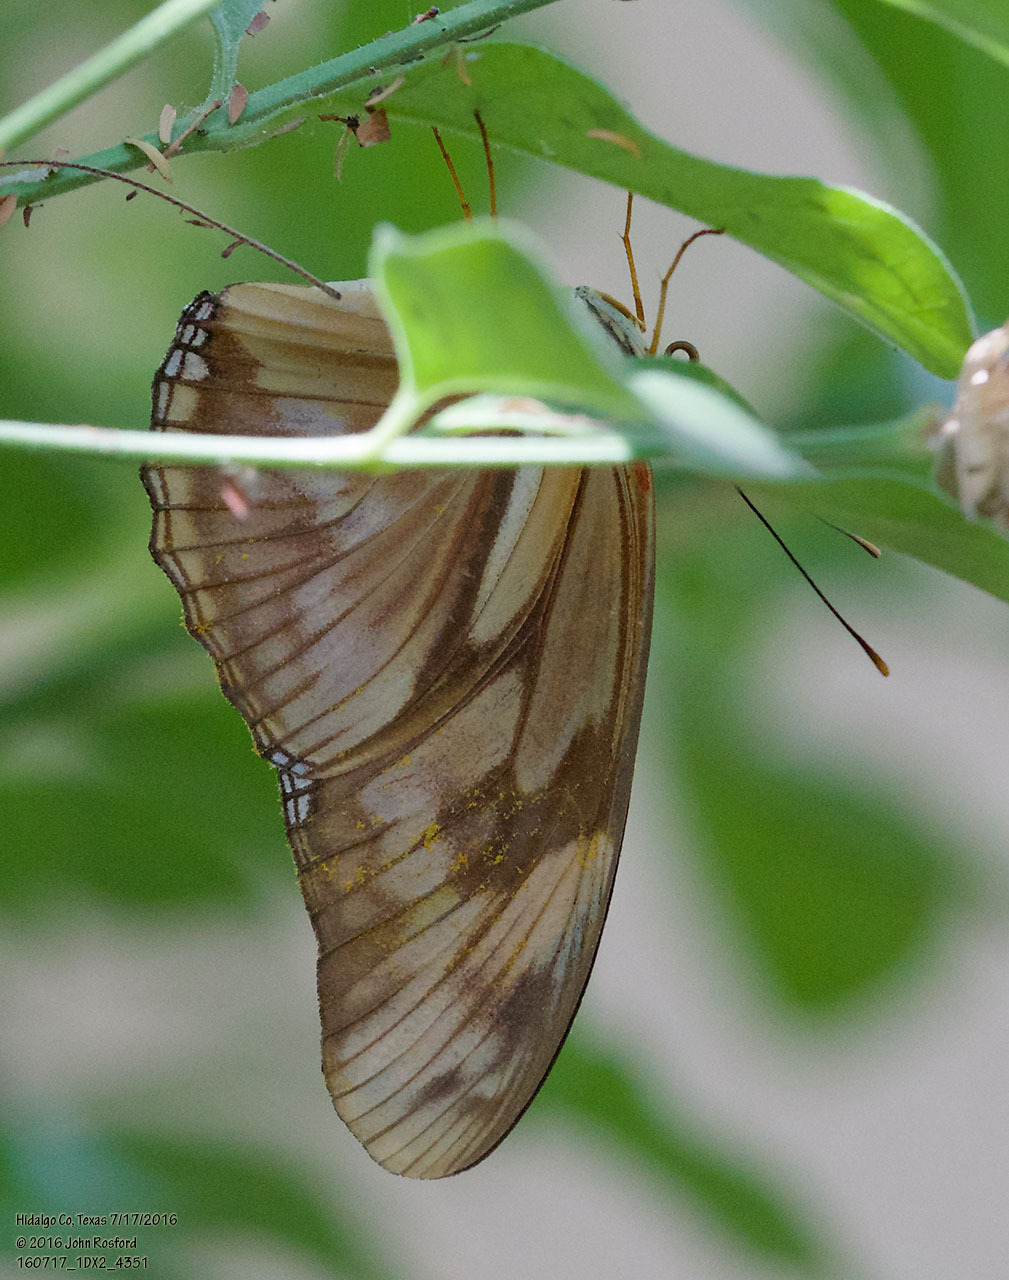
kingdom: Animalia
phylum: Arthropoda
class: Insecta
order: Lepidoptera
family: Nymphalidae
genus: Dryas
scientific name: Dryas iulia
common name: Flambeau
